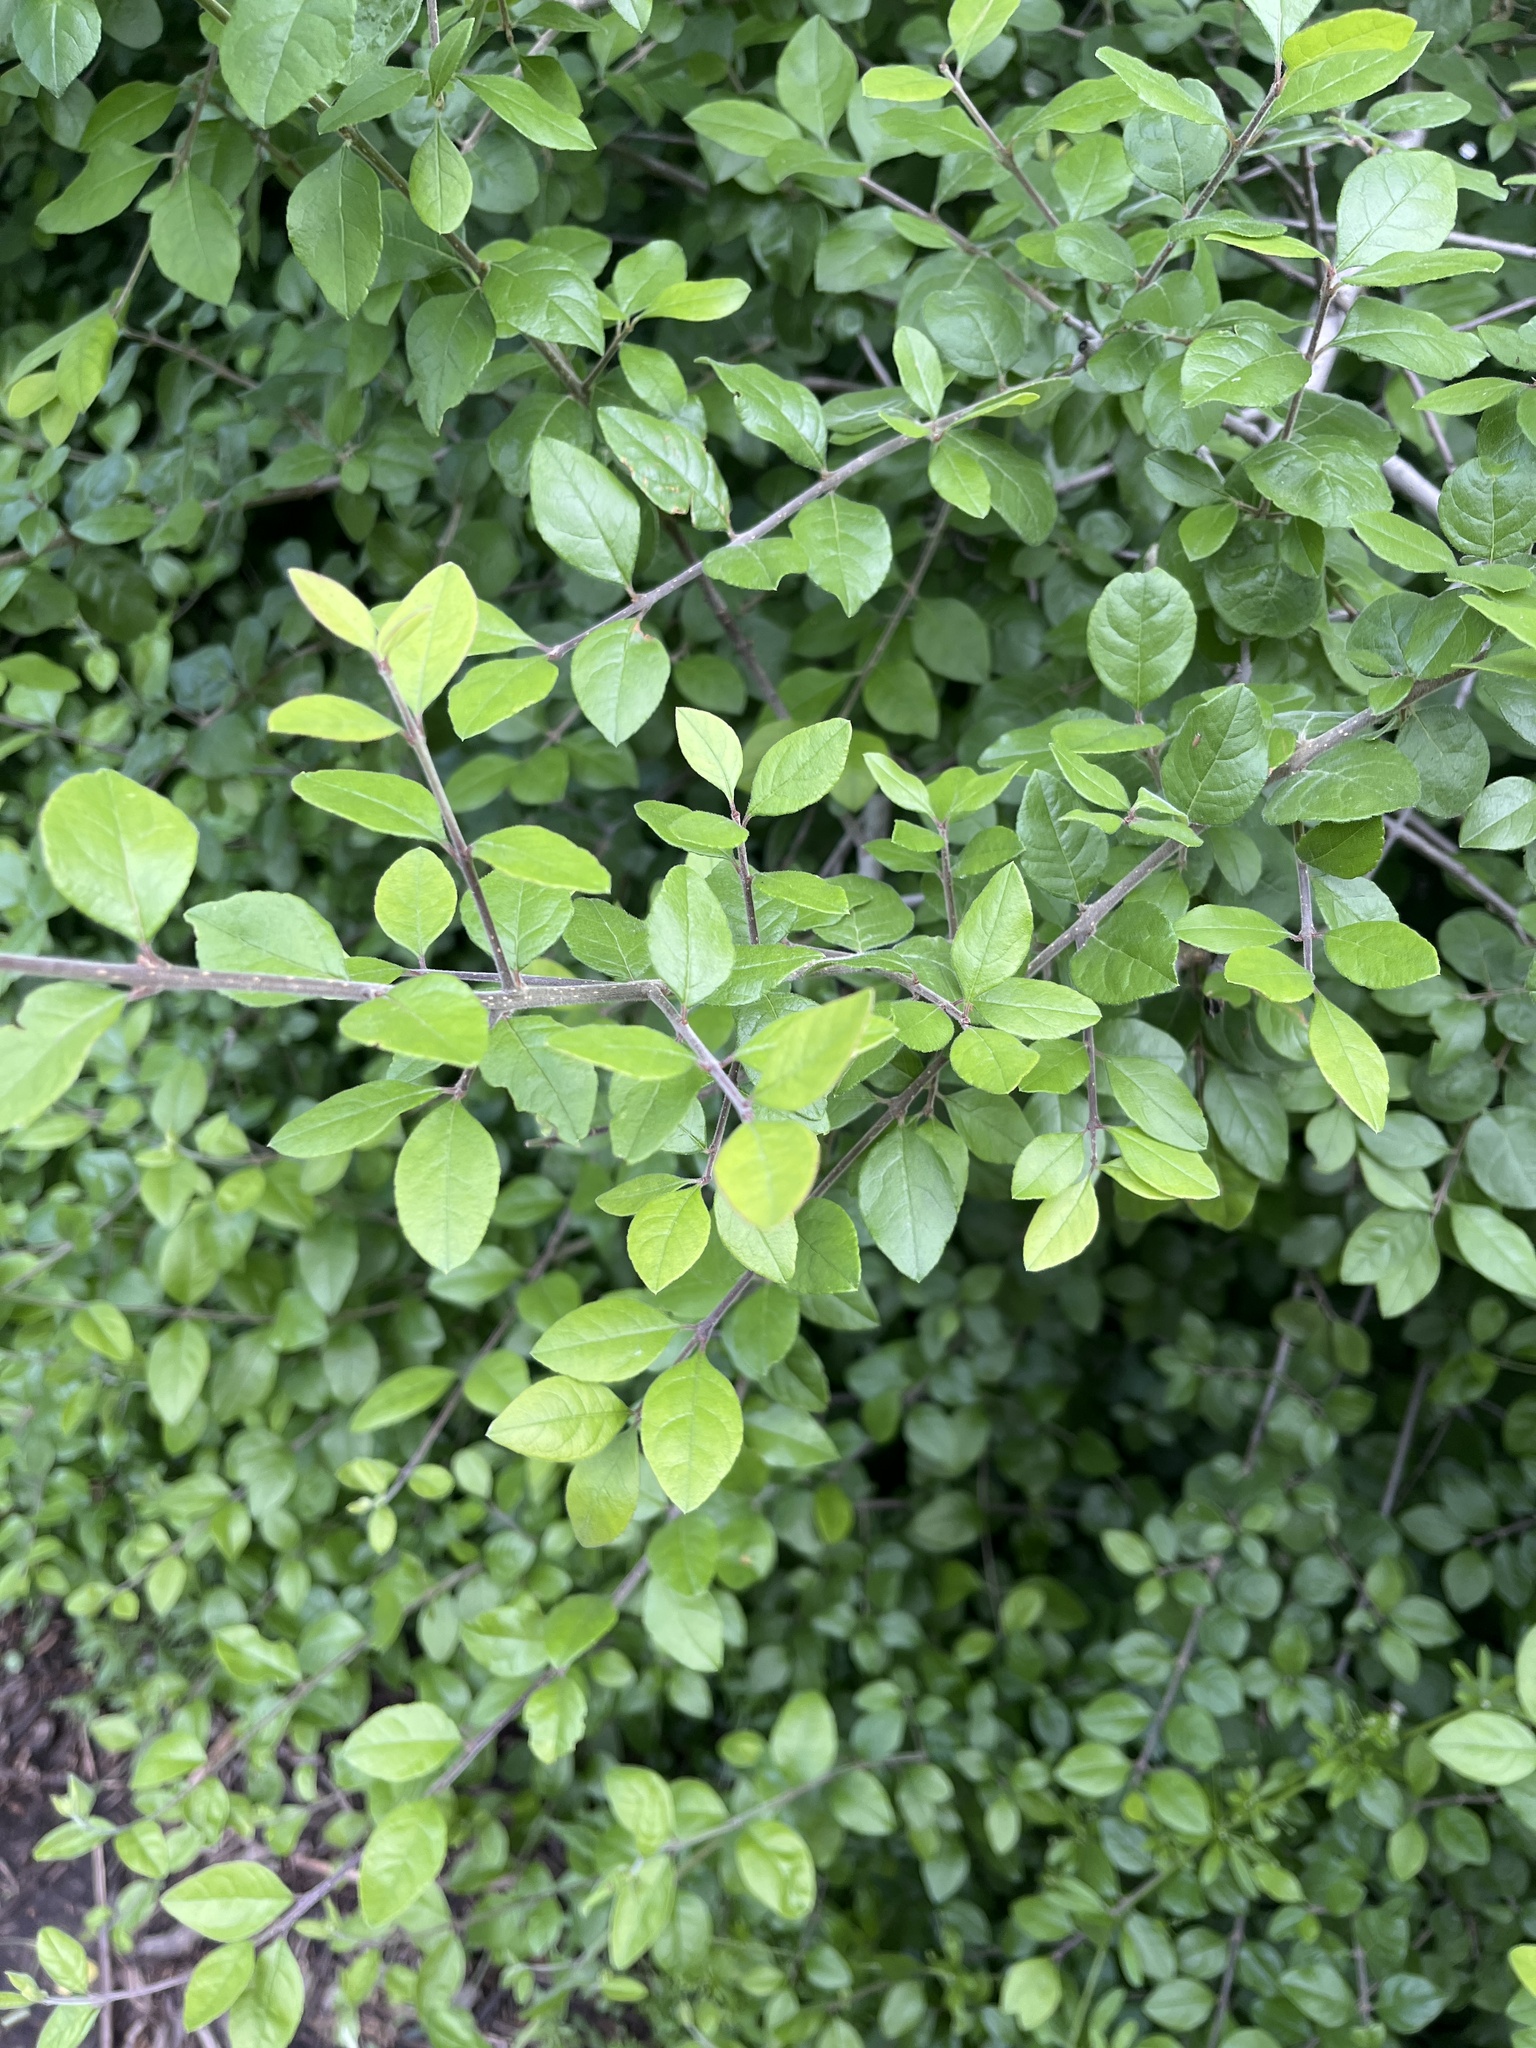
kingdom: Plantae
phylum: Tracheophyta
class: Magnoliopsida
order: Lamiales
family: Oleaceae
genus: Forestiera
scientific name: Forestiera pubescens
